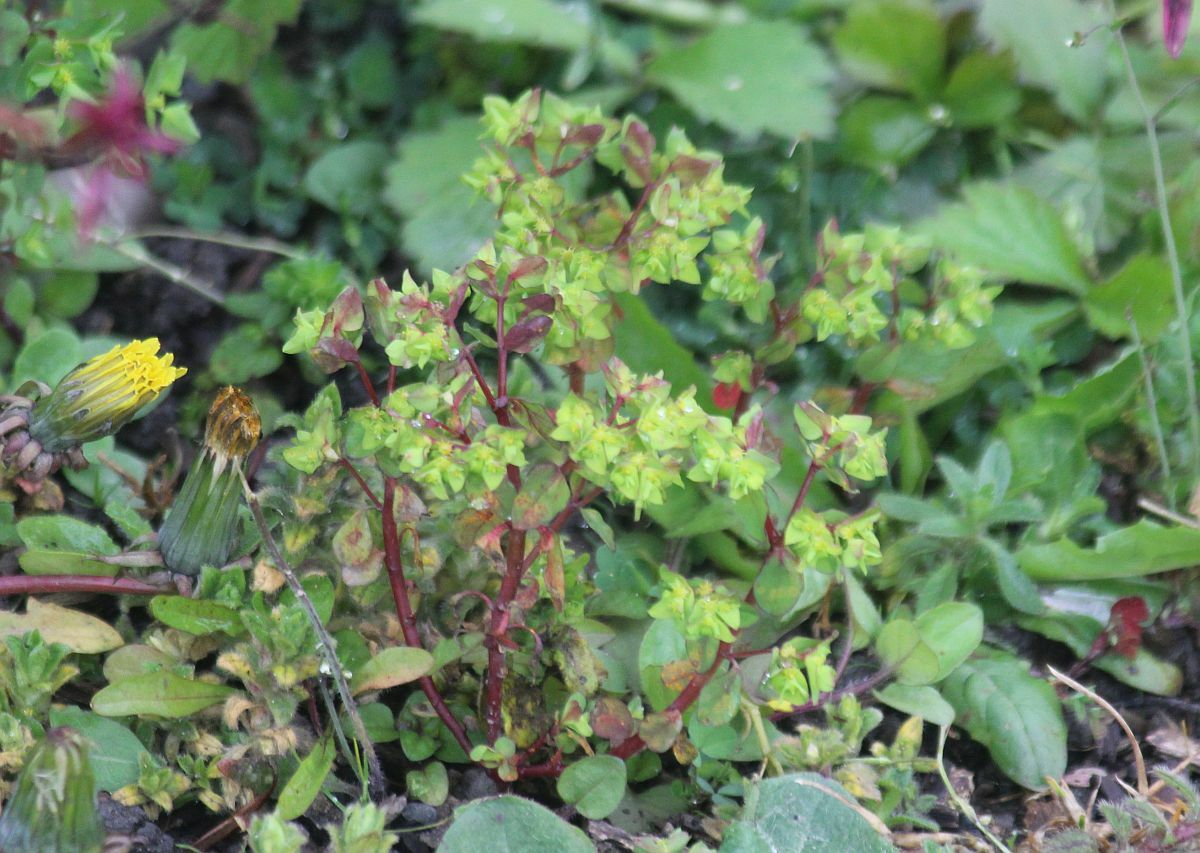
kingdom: Plantae
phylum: Tracheophyta
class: Magnoliopsida
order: Malpighiales
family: Euphorbiaceae
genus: Euphorbia
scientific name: Euphorbia peplus
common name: Petty spurge
